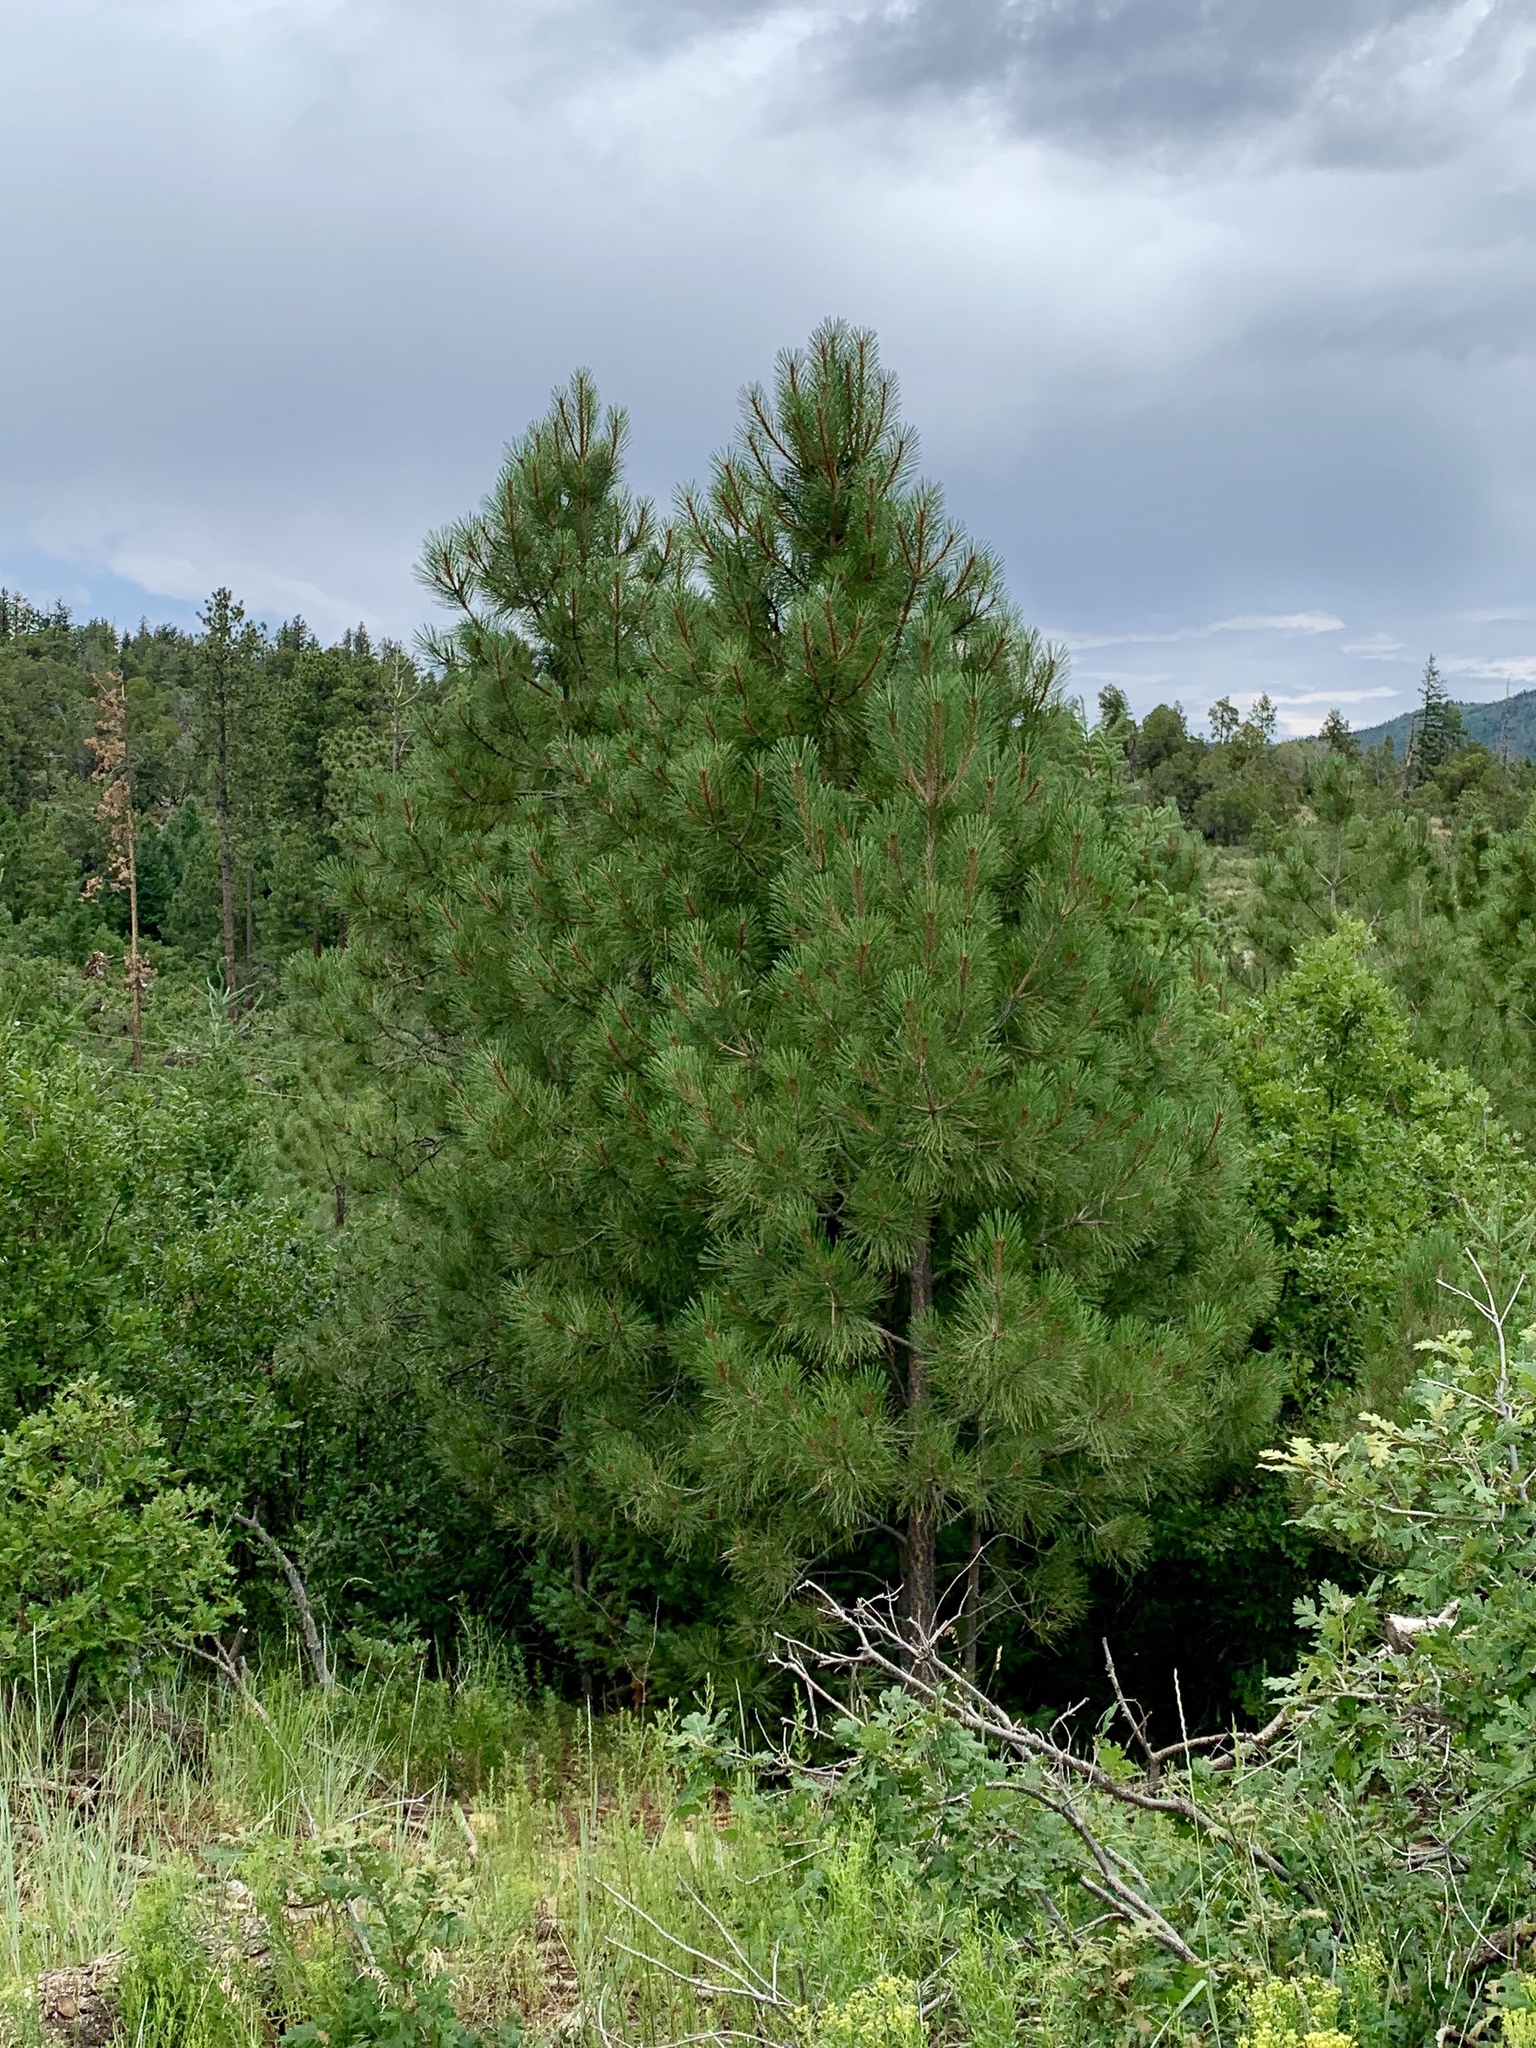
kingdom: Plantae
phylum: Tracheophyta
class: Pinopsida
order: Pinales
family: Pinaceae
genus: Pinus
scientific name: Pinus ponderosa
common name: Western yellow-pine
